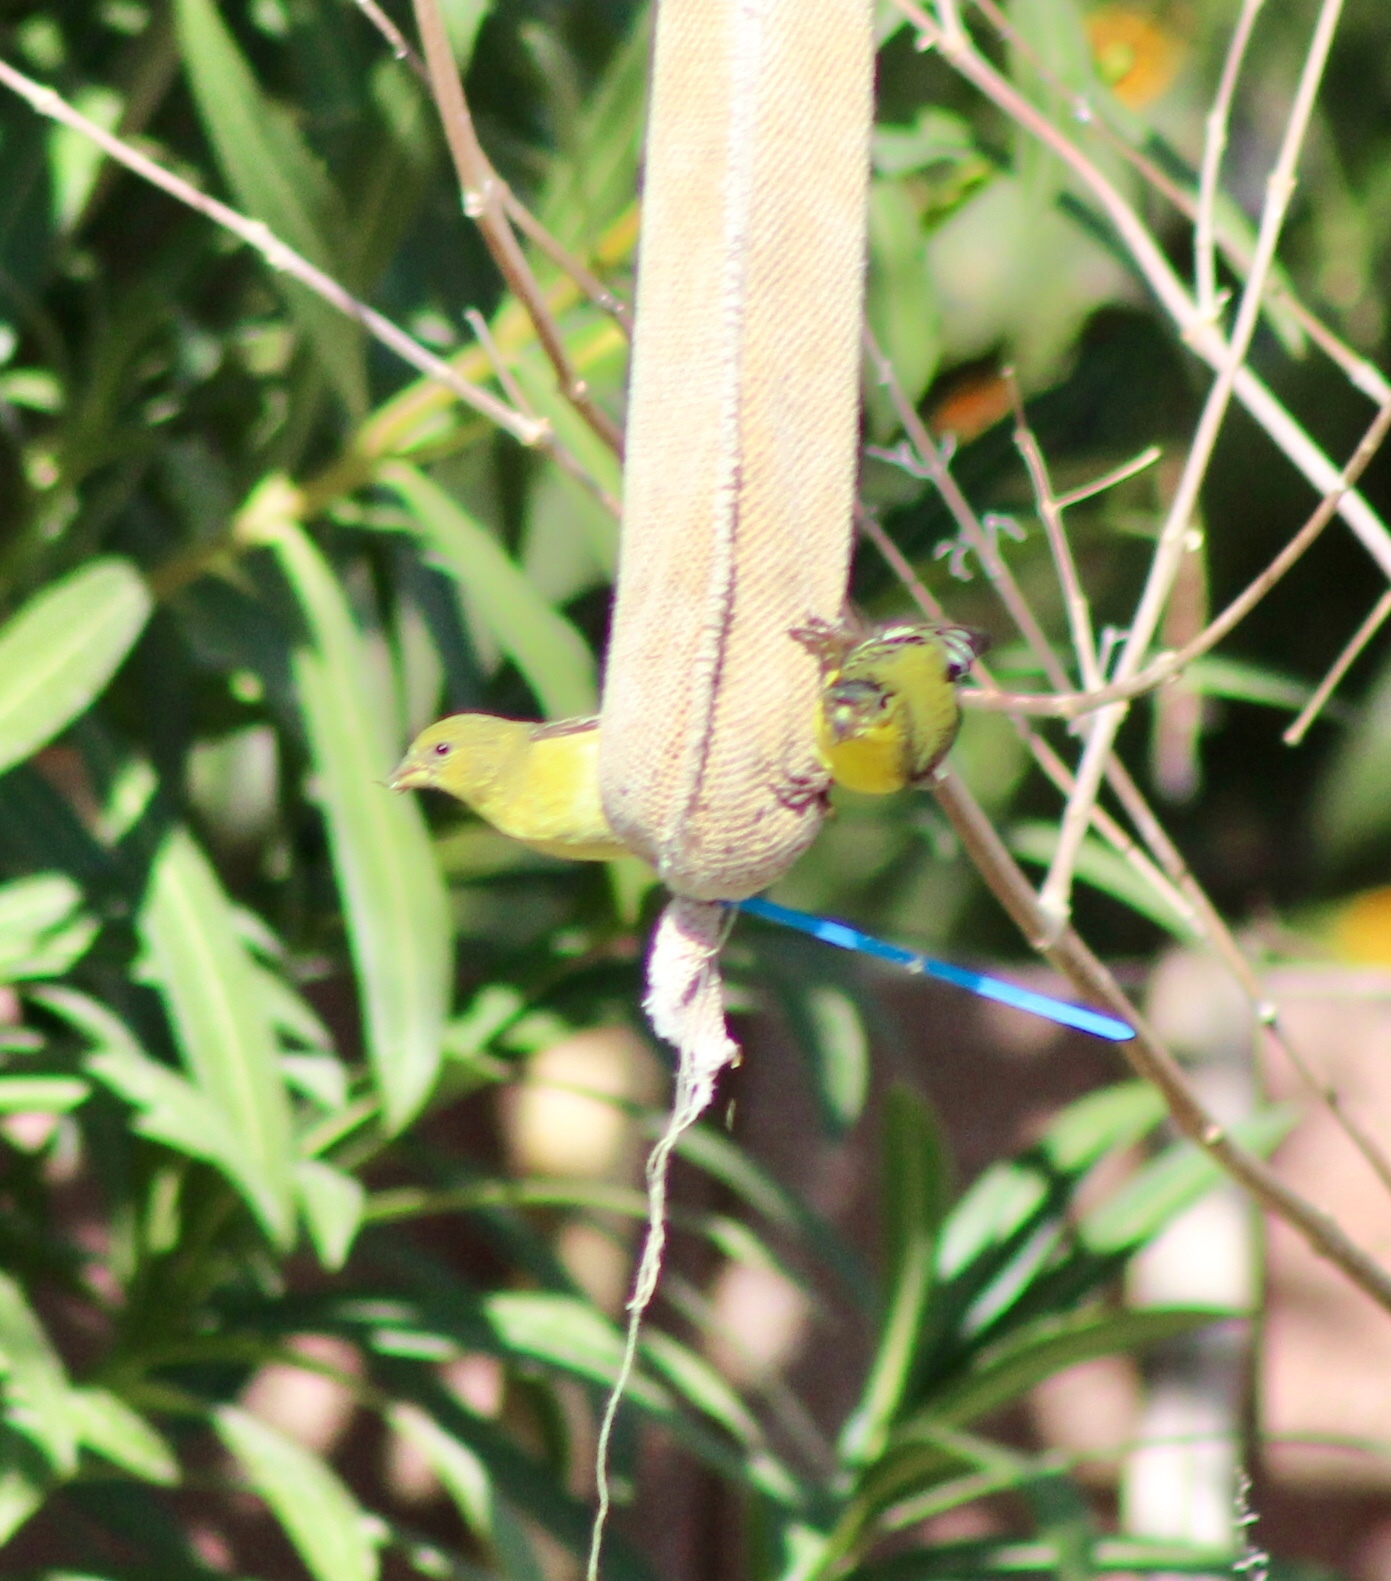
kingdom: Animalia
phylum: Chordata
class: Aves
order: Passeriformes
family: Fringillidae
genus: Spinus
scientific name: Spinus psaltria
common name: Lesser goldfinch
